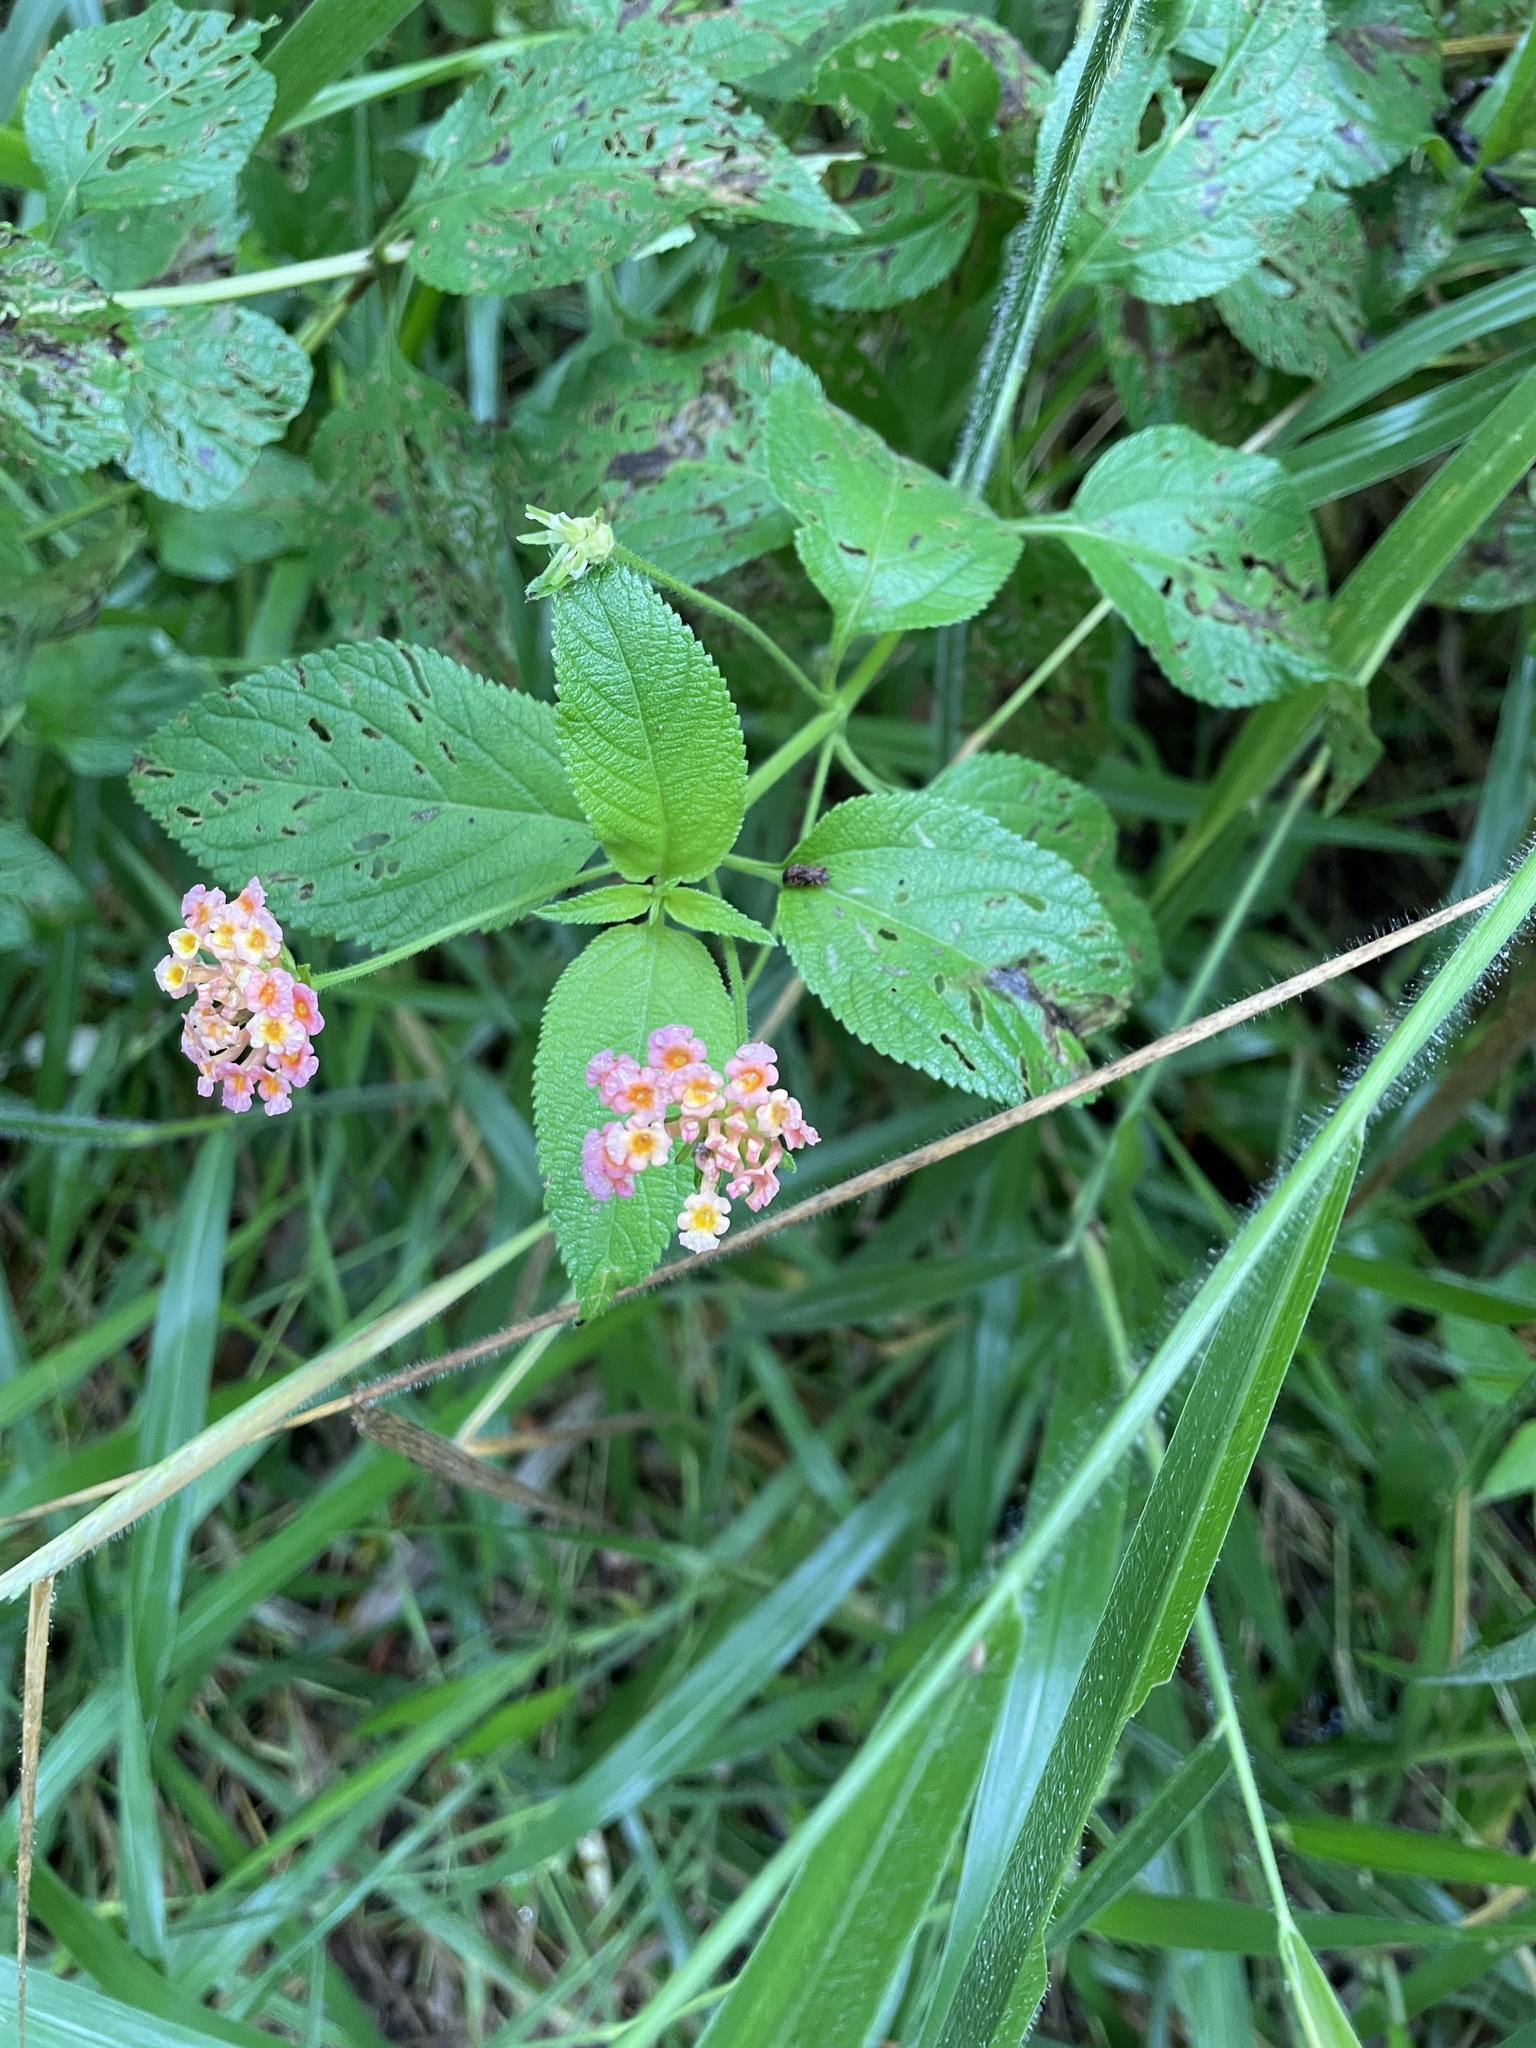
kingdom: Plantae
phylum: Tracheophyta
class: Magnoliopsida
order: Lamiales
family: Verbenaceae
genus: Lantana
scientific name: Lantana camara
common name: Lantana
